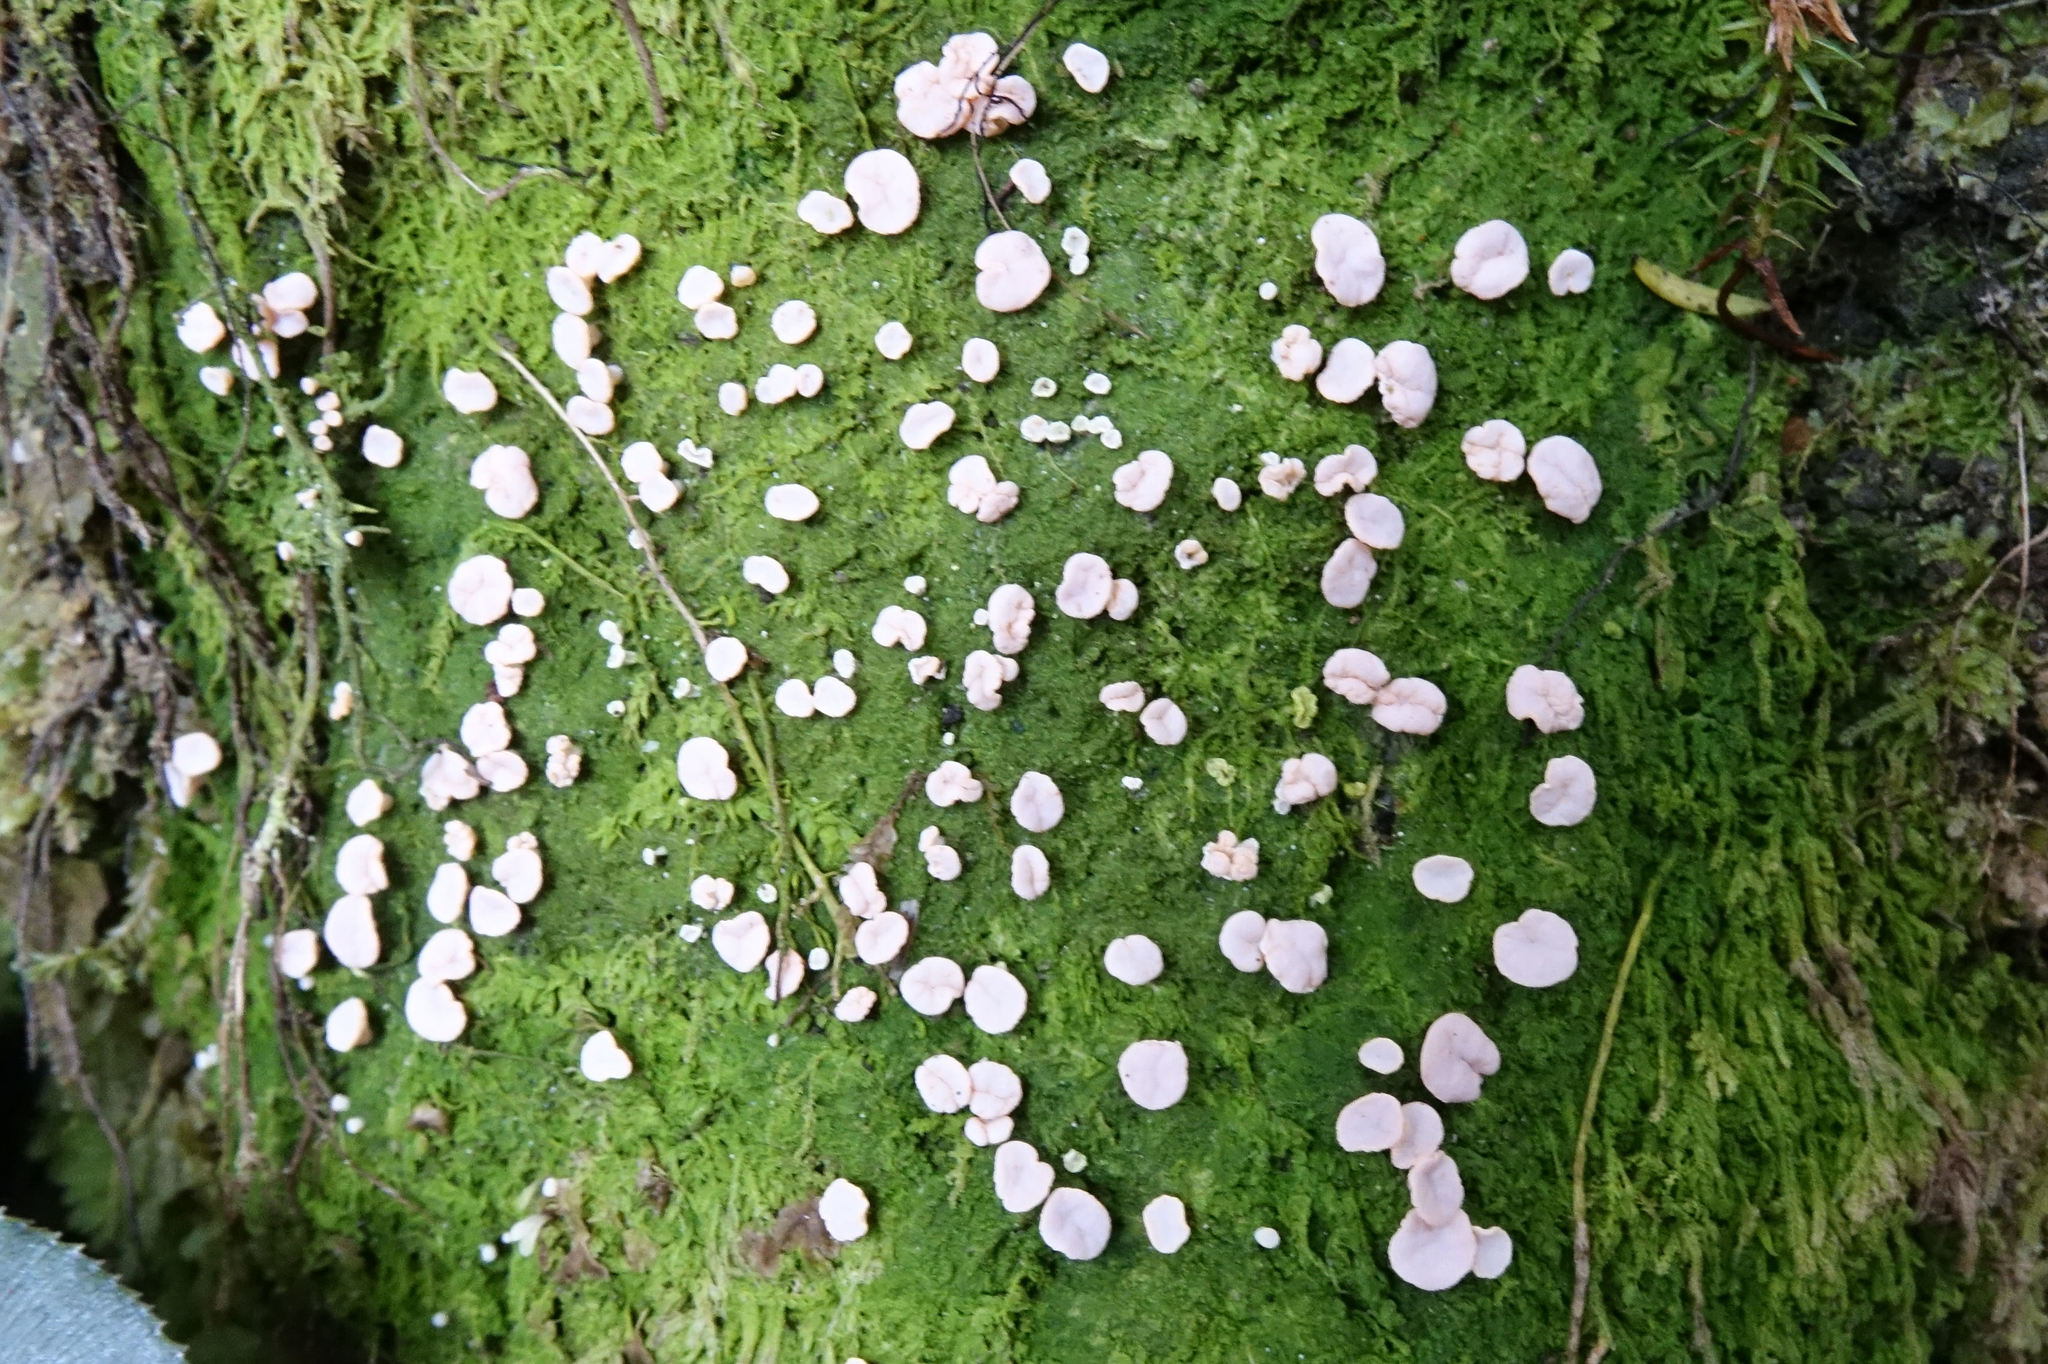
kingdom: Fungi
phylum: Ascomycota
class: Lecanoromycetes
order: Pertusariales
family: Icmadophilaceae
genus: Dibaeis
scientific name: Dibaeis absoluta
